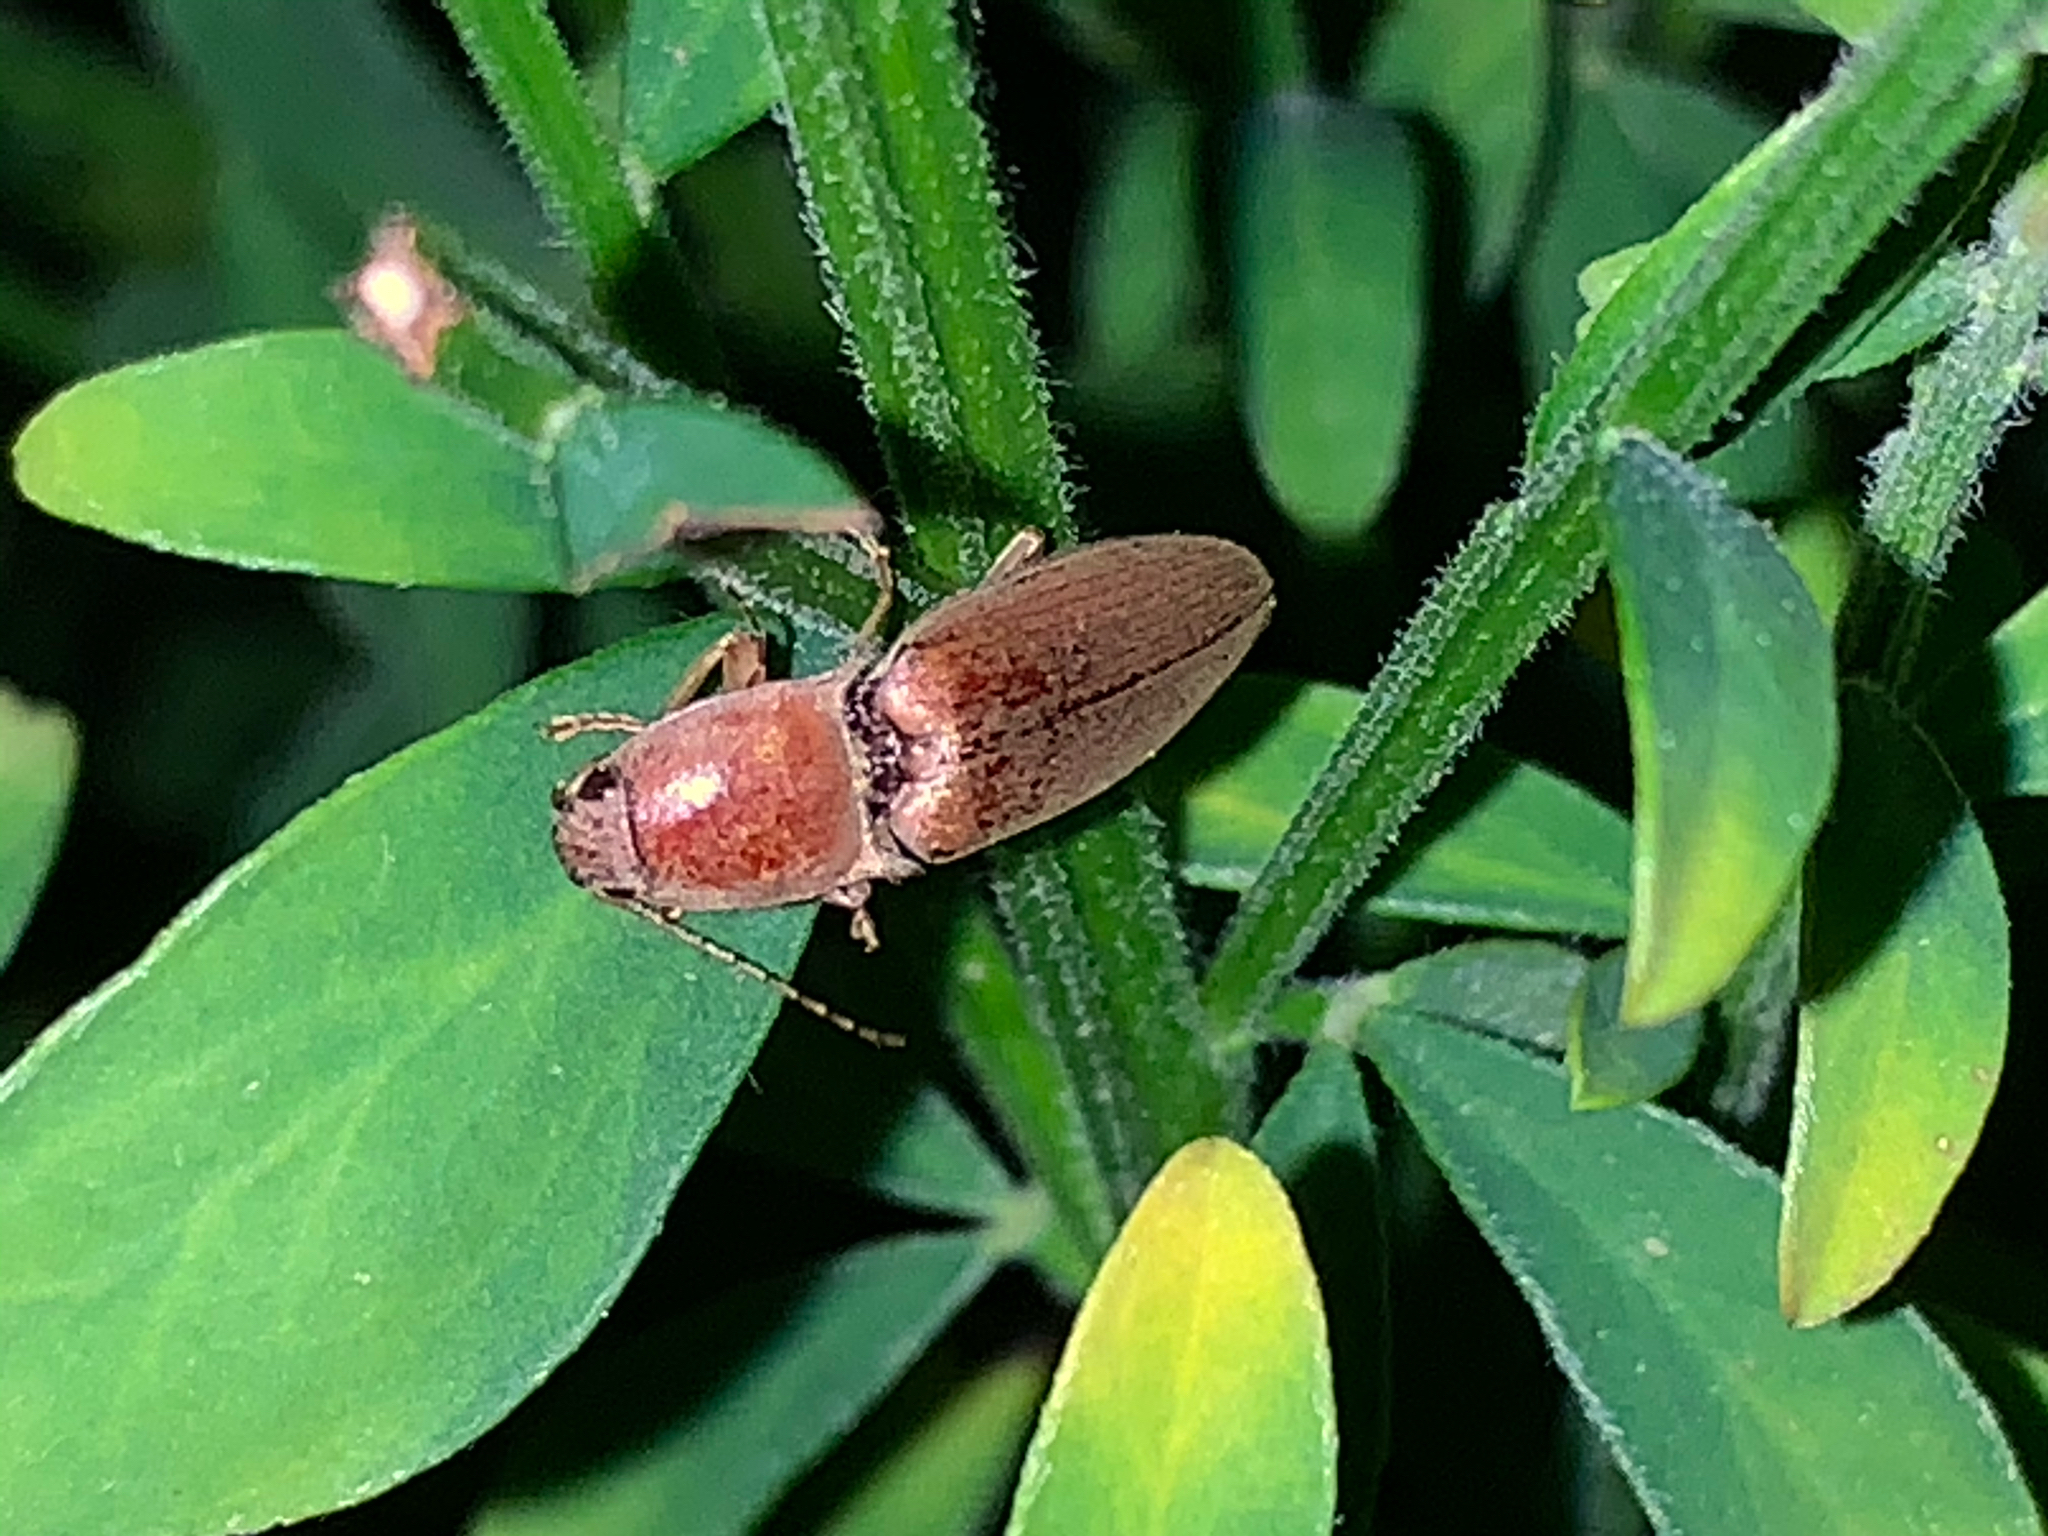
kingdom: Animalia
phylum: Arthropoda
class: Insecta
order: Coleoptera
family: Elateridae
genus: Monocrepidius
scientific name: Monocrepidius lividus
